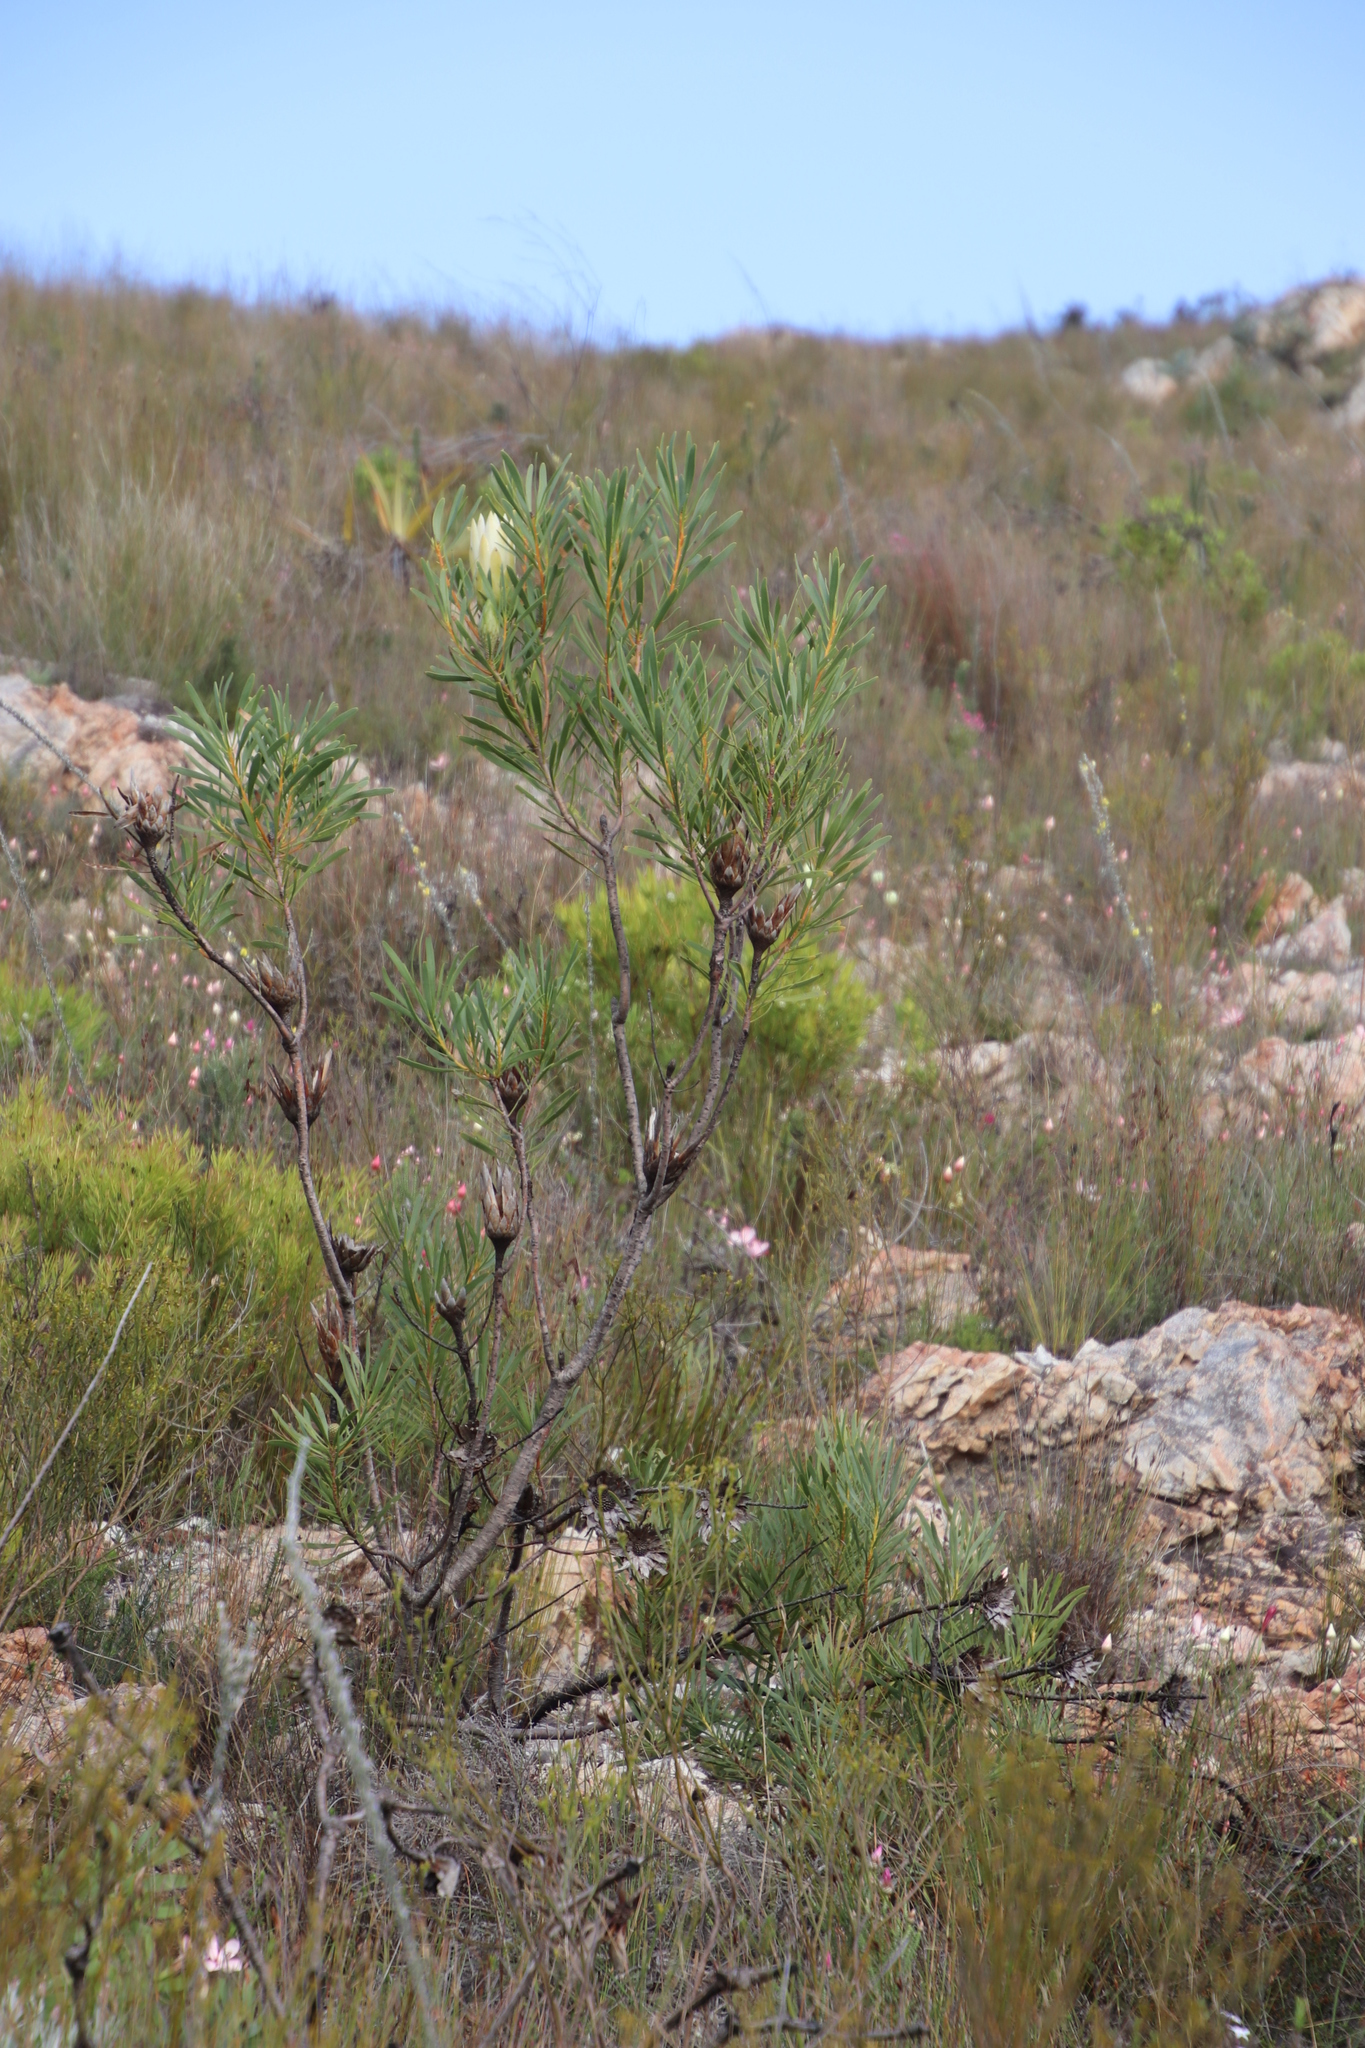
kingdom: Plantae
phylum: Tracheophyta
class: Magnoliopsida
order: Proteales
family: Proteaceae
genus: Protea
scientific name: Protea repens
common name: Sugarbush
